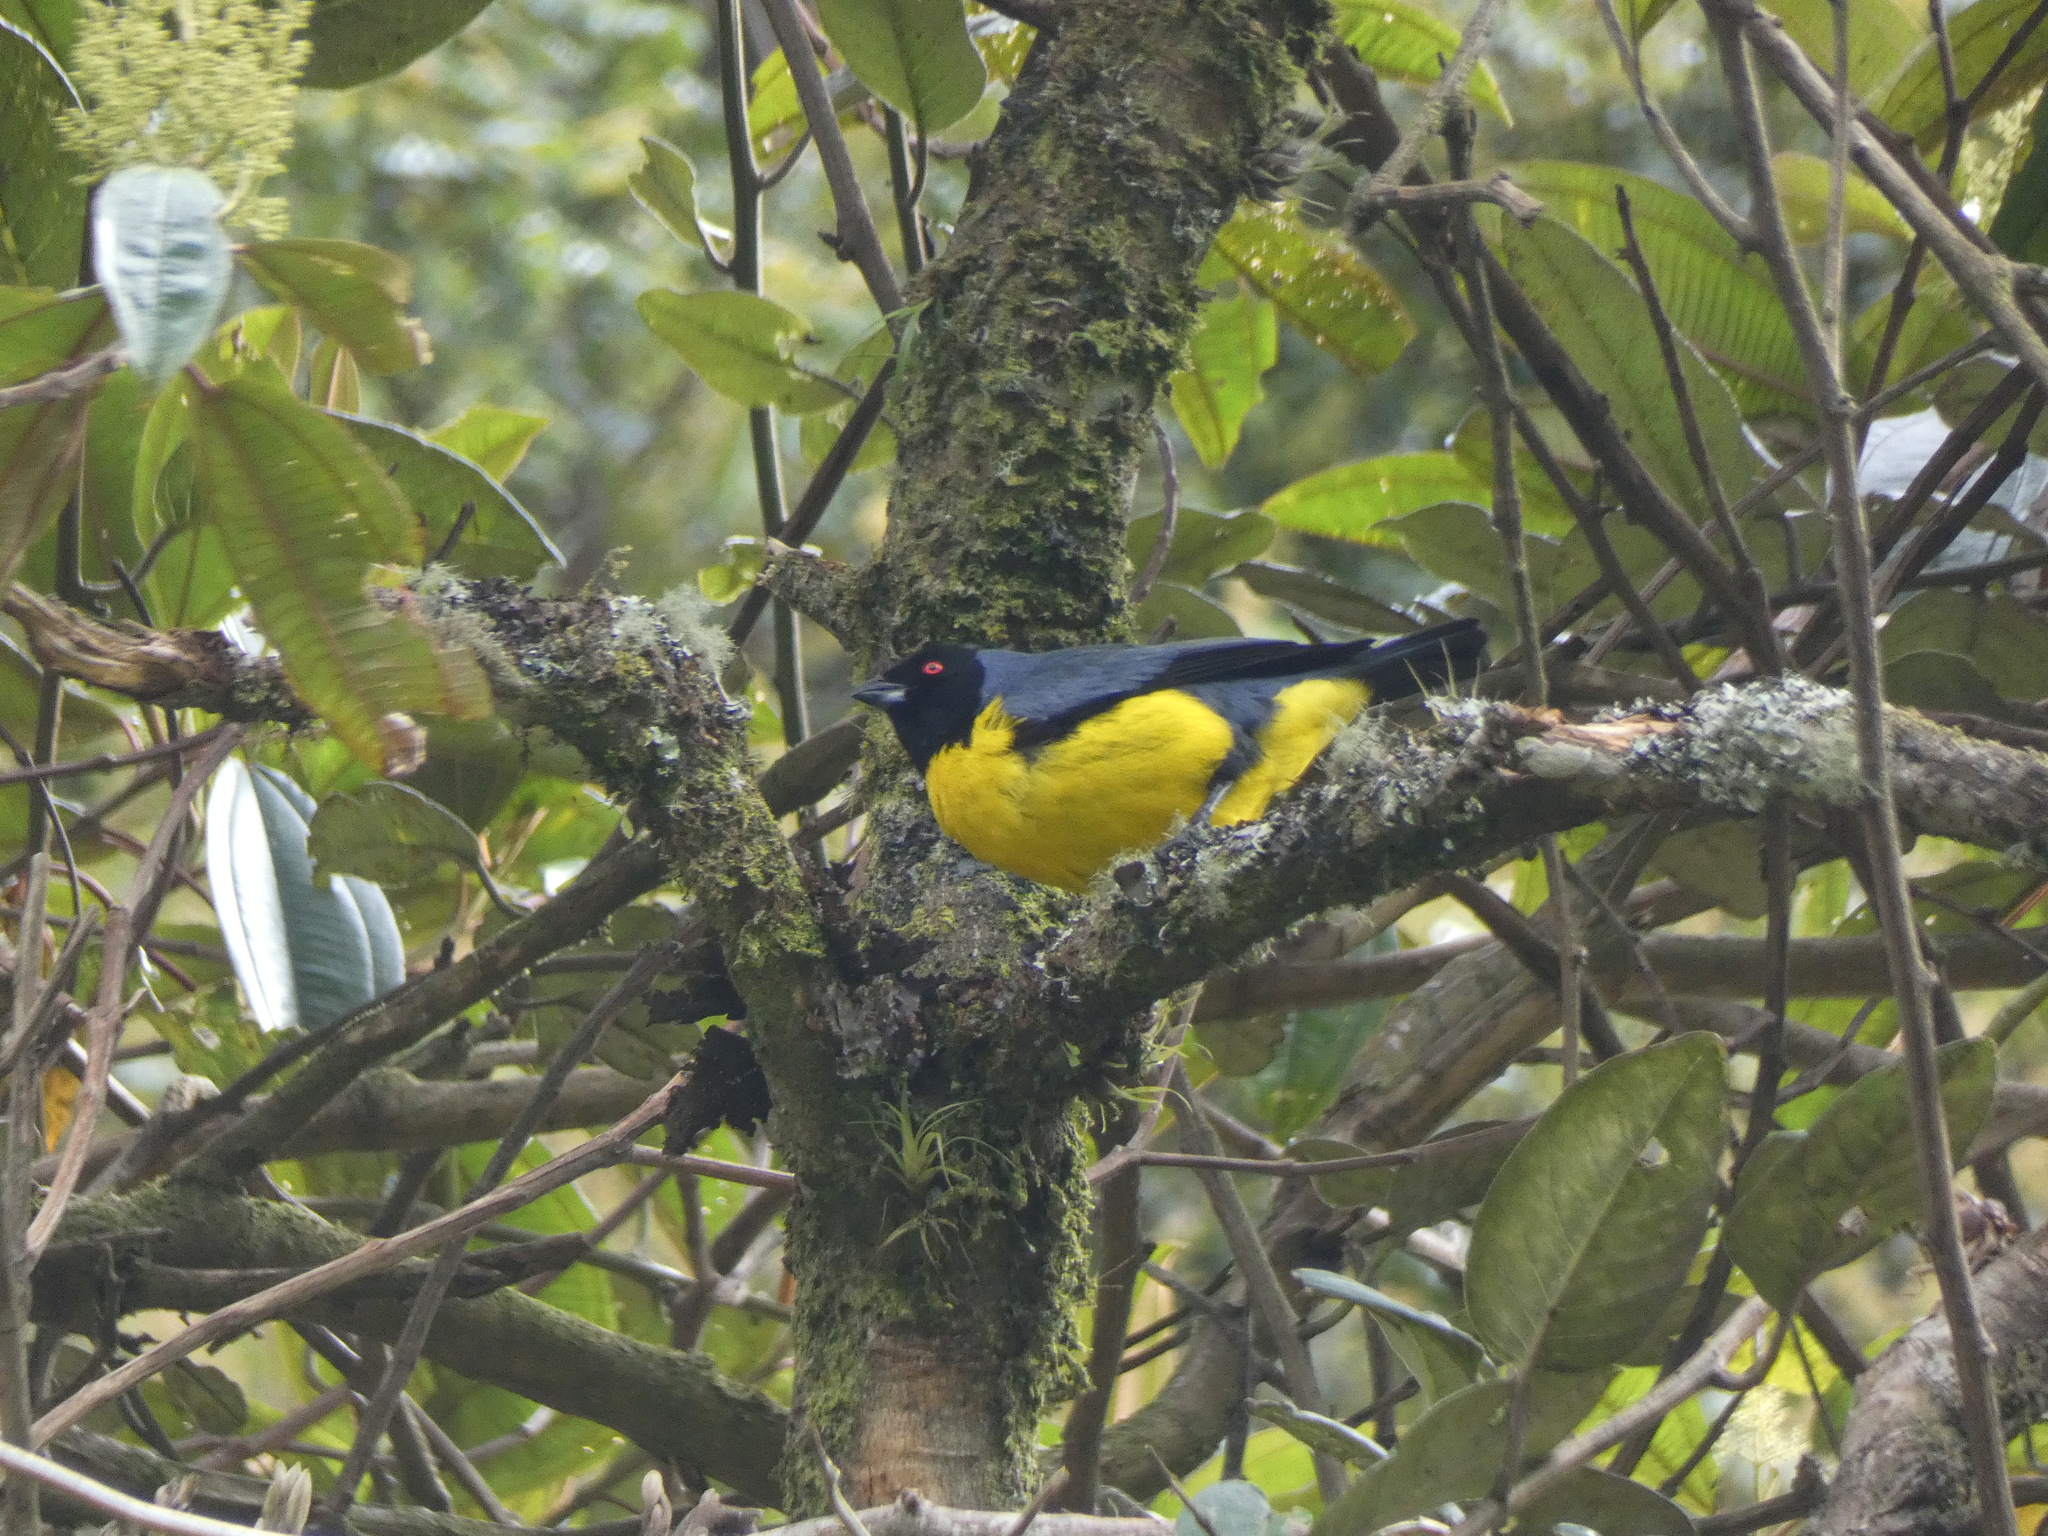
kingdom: Animalia
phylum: Chordata
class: Aves
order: Passeriformes
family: Thraupidae
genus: Buthraupis
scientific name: Buthraupis montana
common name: Hooded mountain tanager
